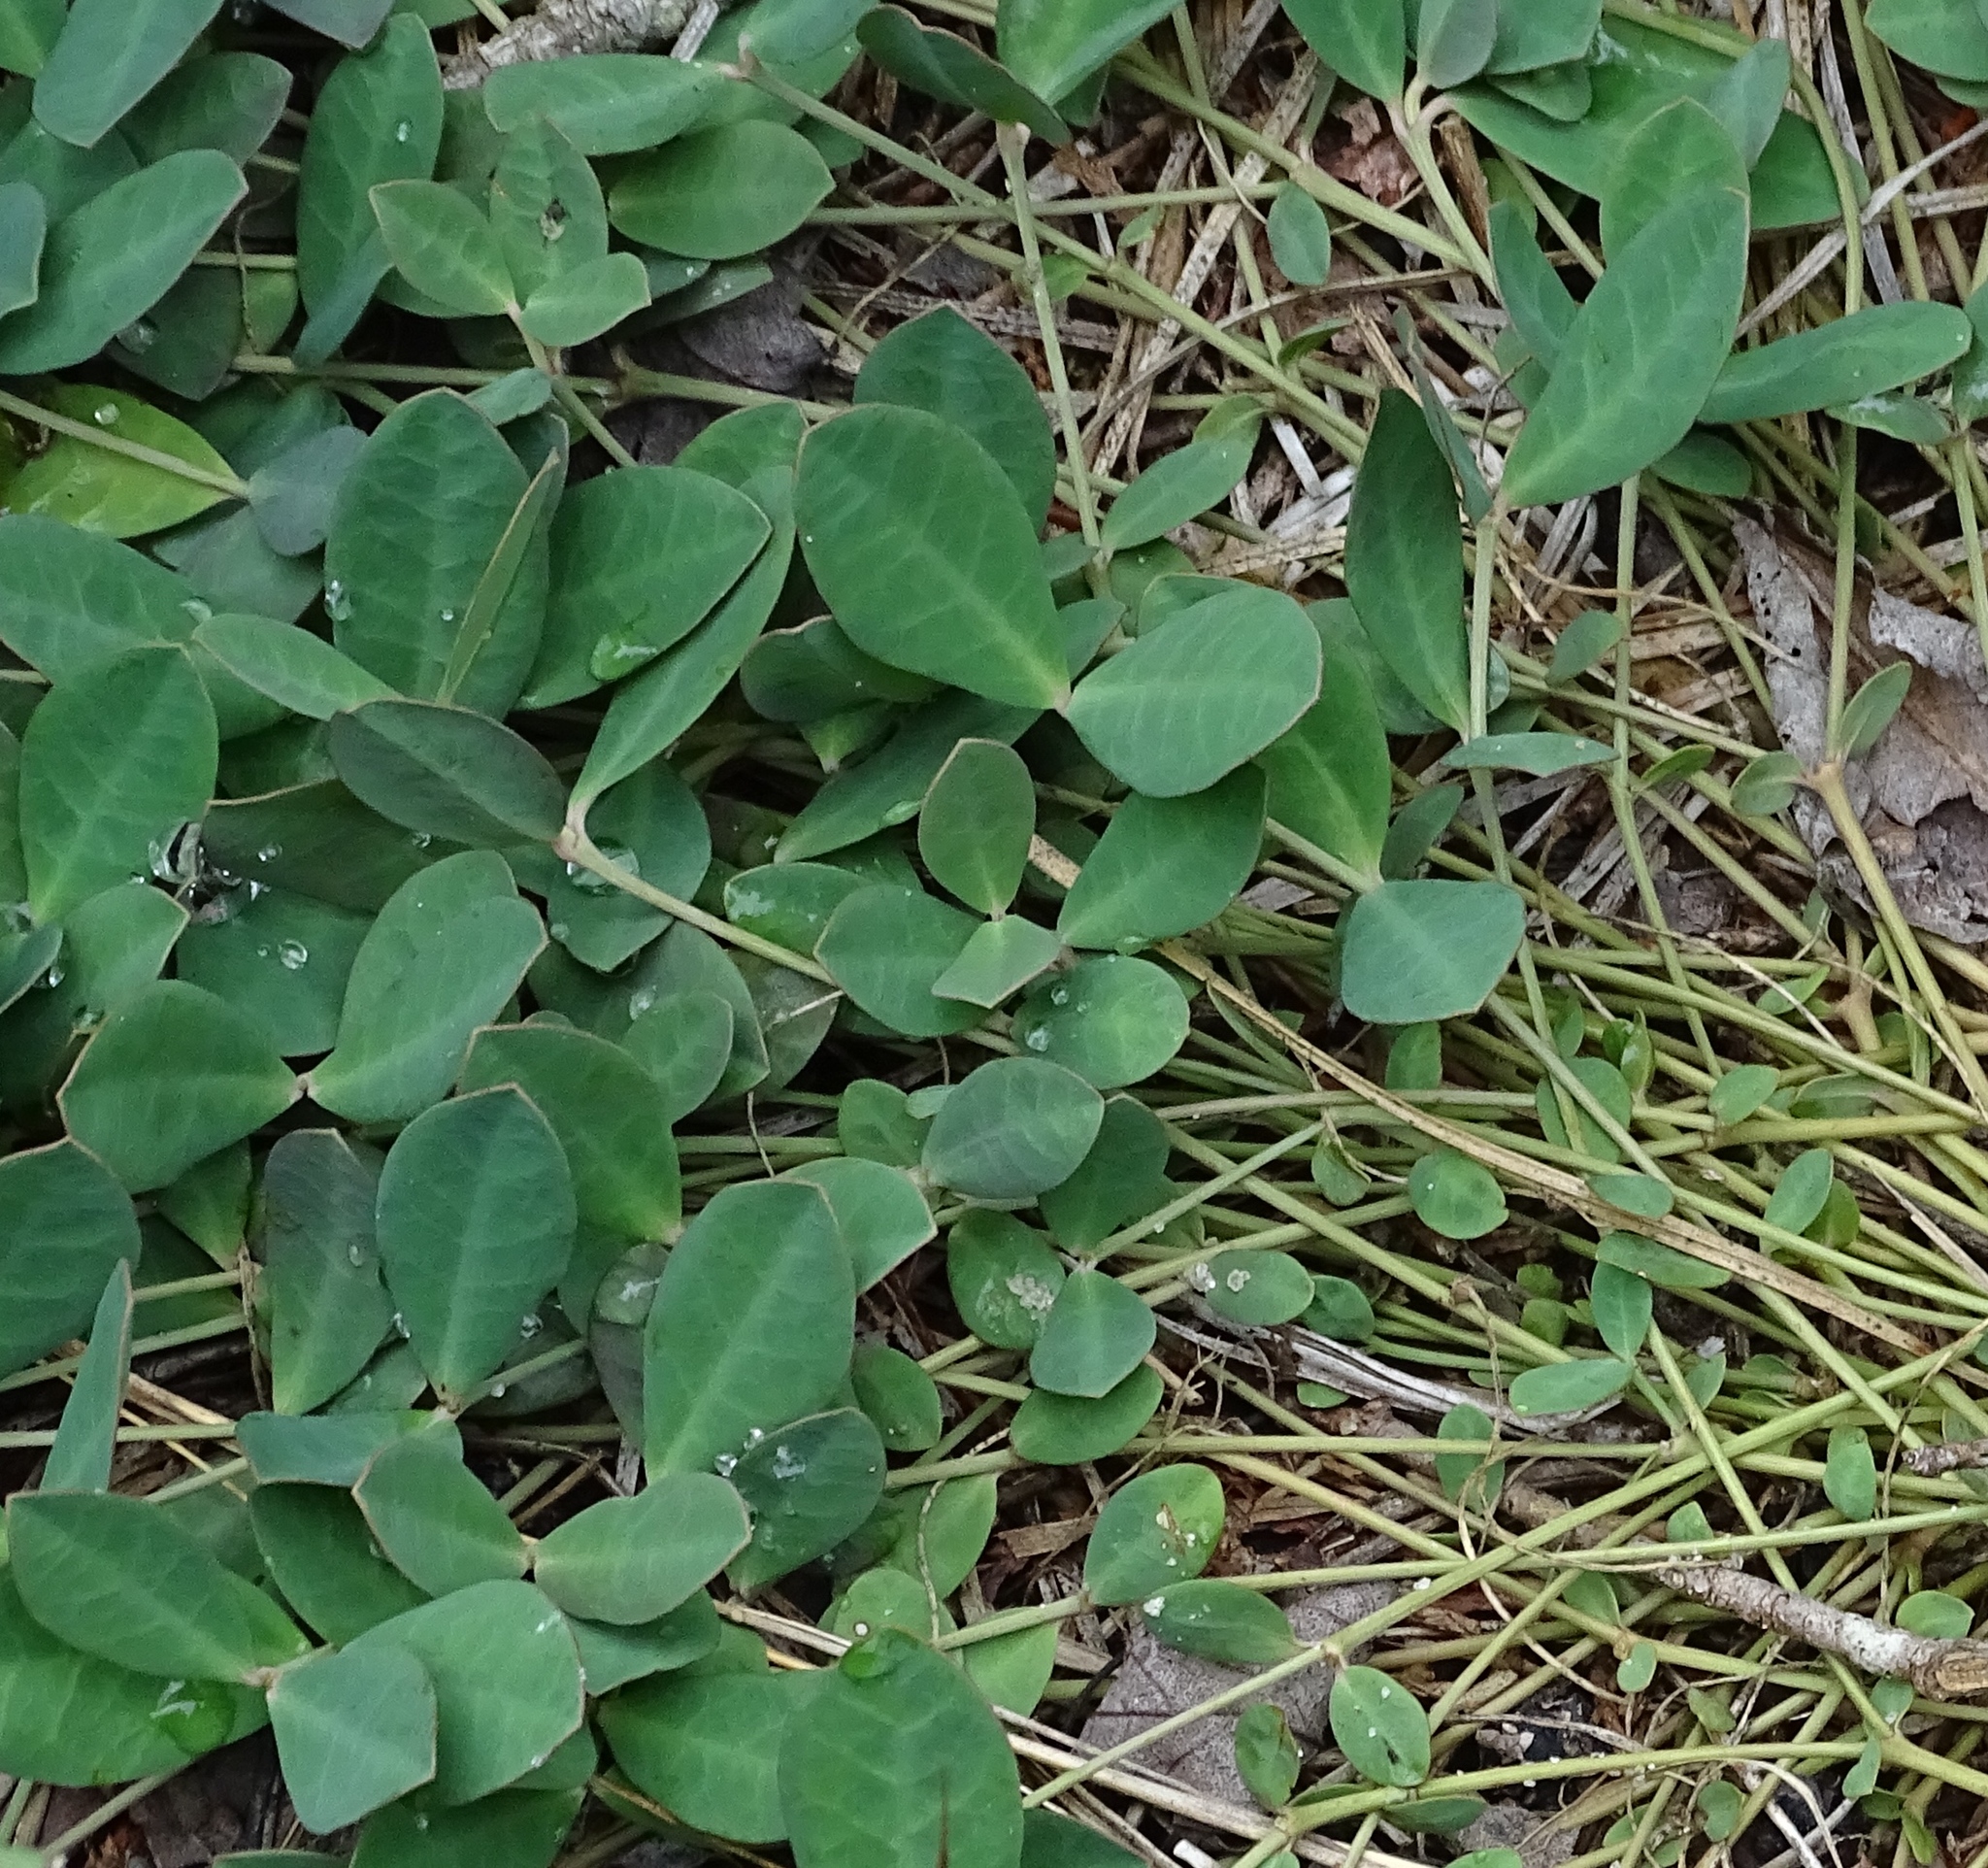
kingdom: Plantae
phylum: Tracheophyta
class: Magnoliopsida
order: Malpighiales
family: Euphorbiaceae
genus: Euphorbia
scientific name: Euphorbia ipecacuanhae
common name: Carolina ipecac
